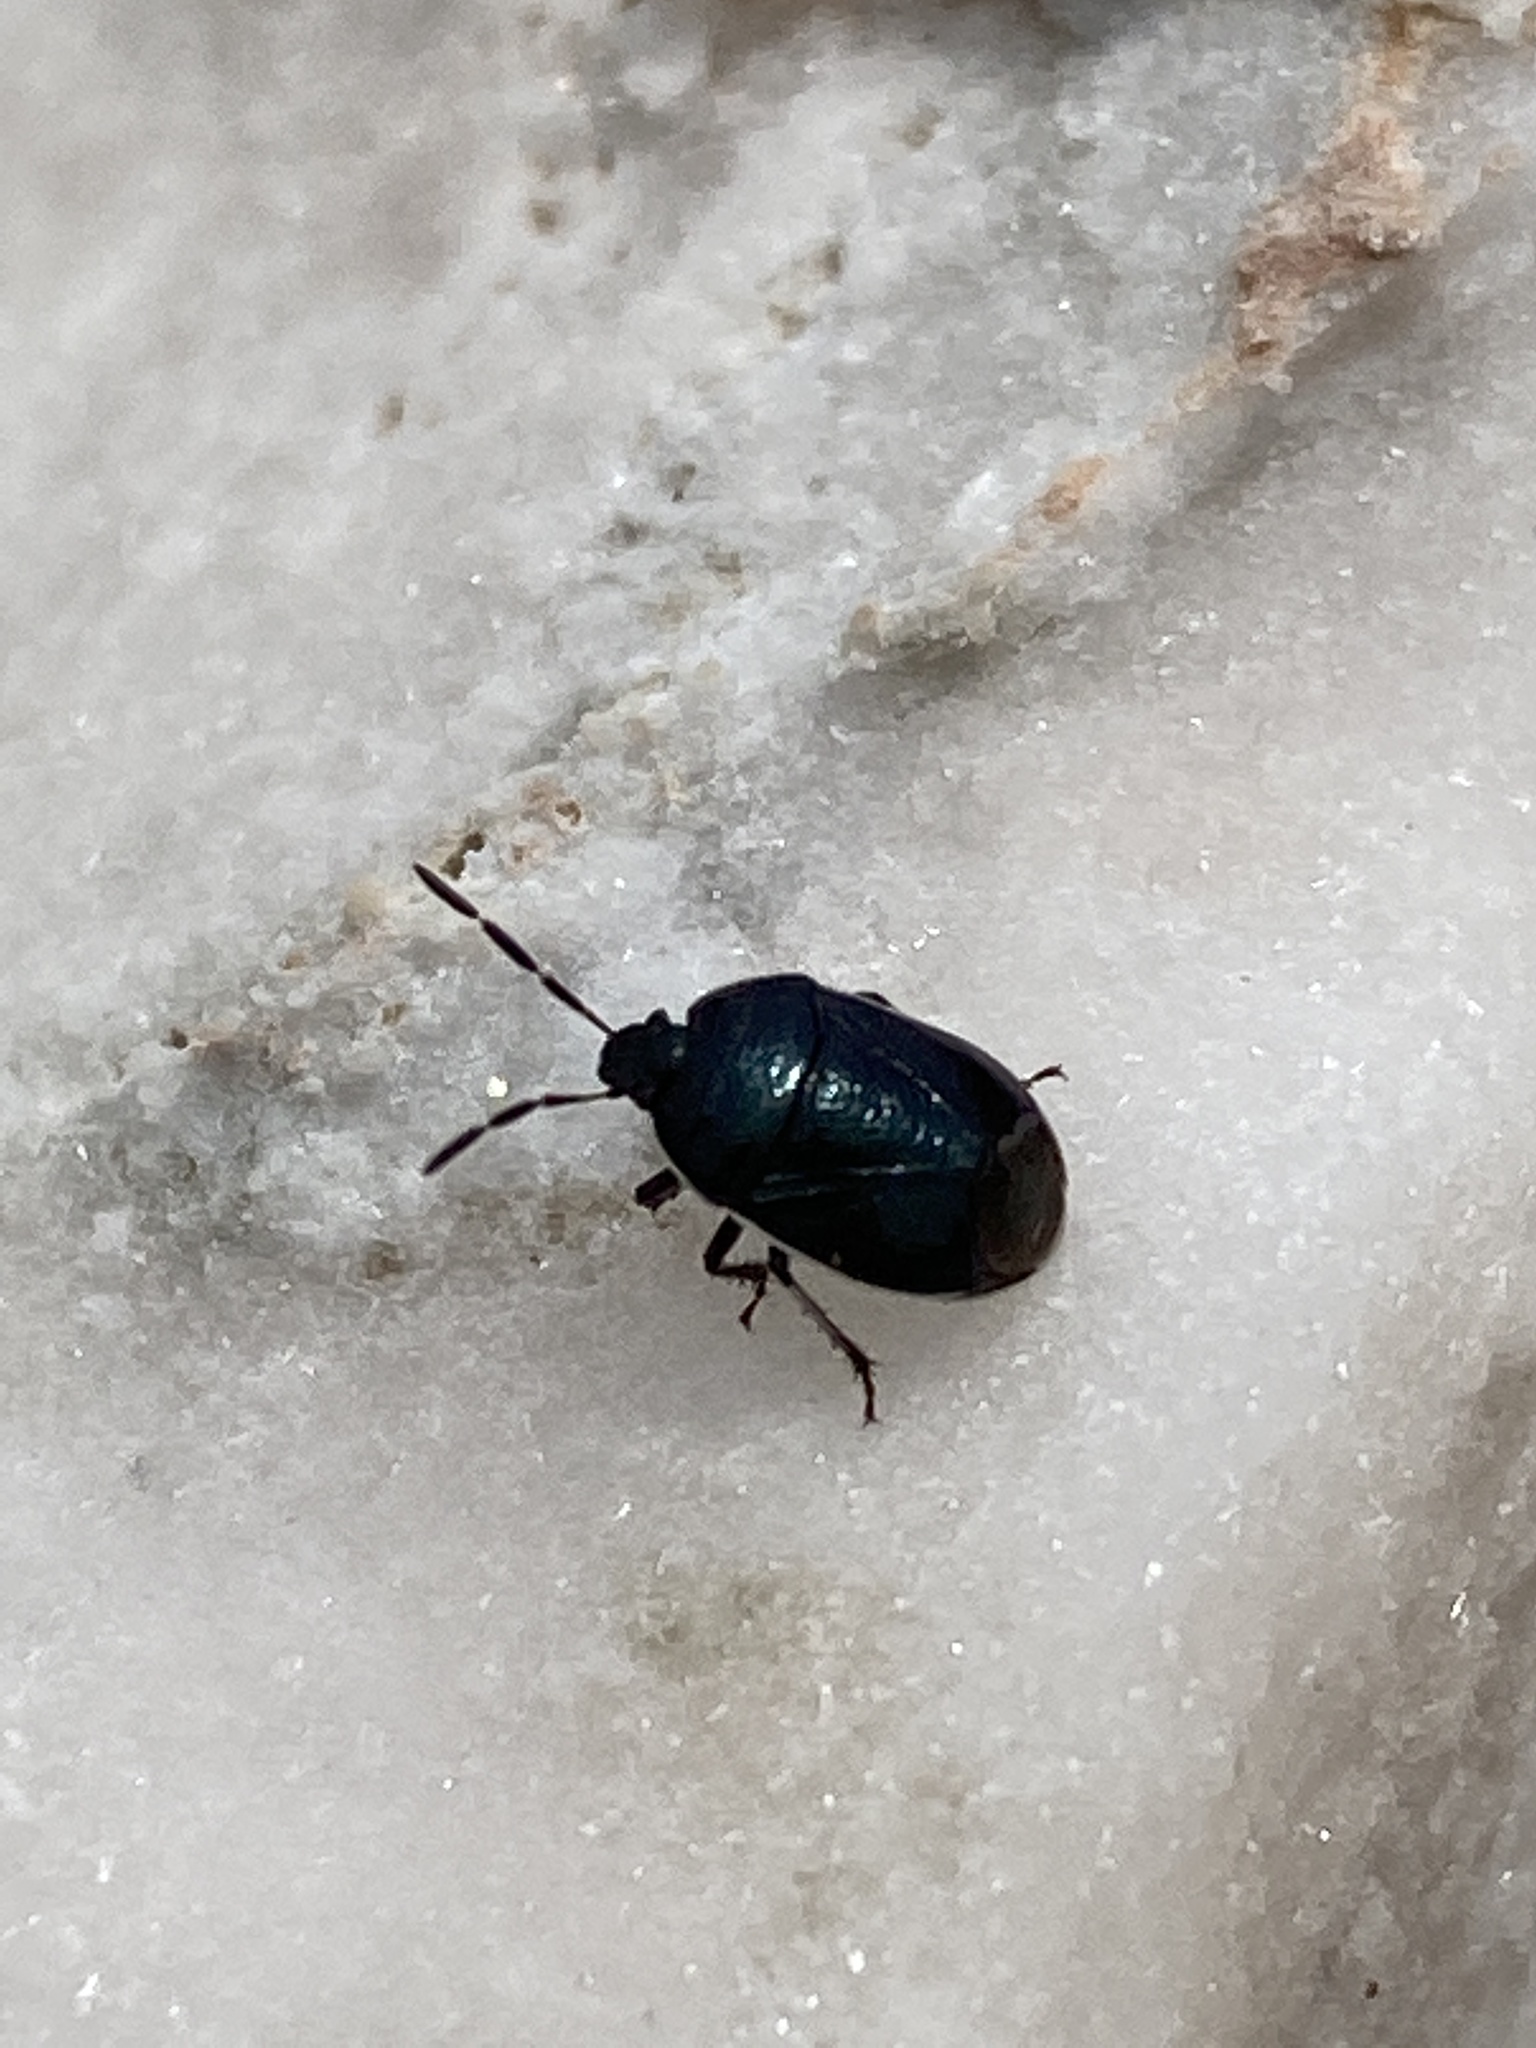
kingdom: Animalia
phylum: Arthropoda
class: Insecta
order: Hemiptera
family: Cydnidae
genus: Sehirus
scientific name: Sehirus cinctus
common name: White-margined burrower bug
